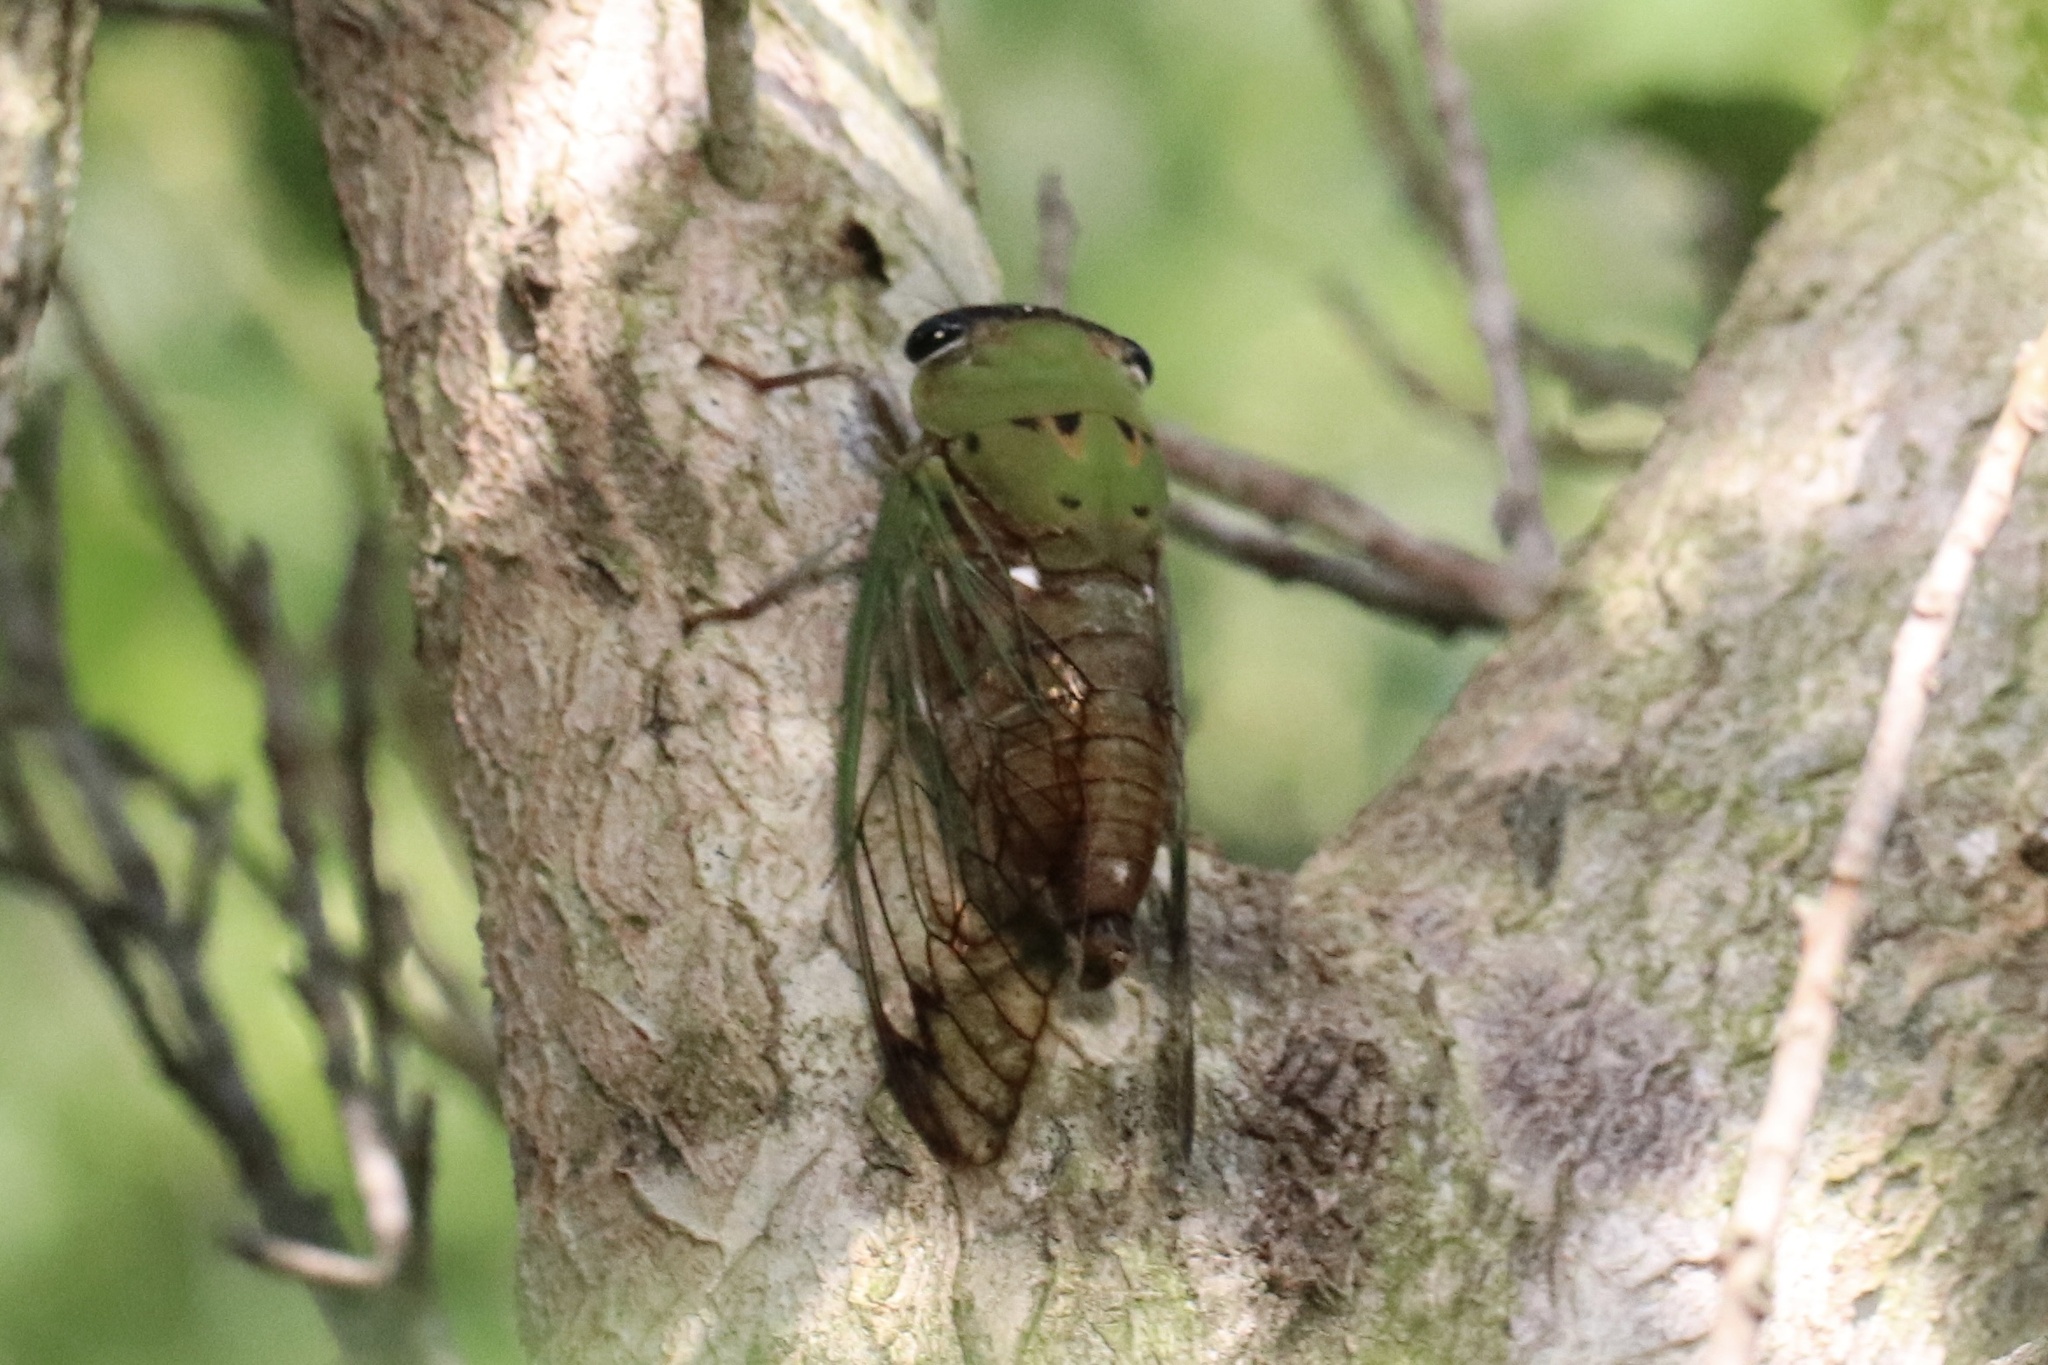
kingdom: Animalia
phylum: Arthropoda
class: Insecta
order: Hemiptera
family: Cicadidae
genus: Neotibicen
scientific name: Neotibicen superbus
